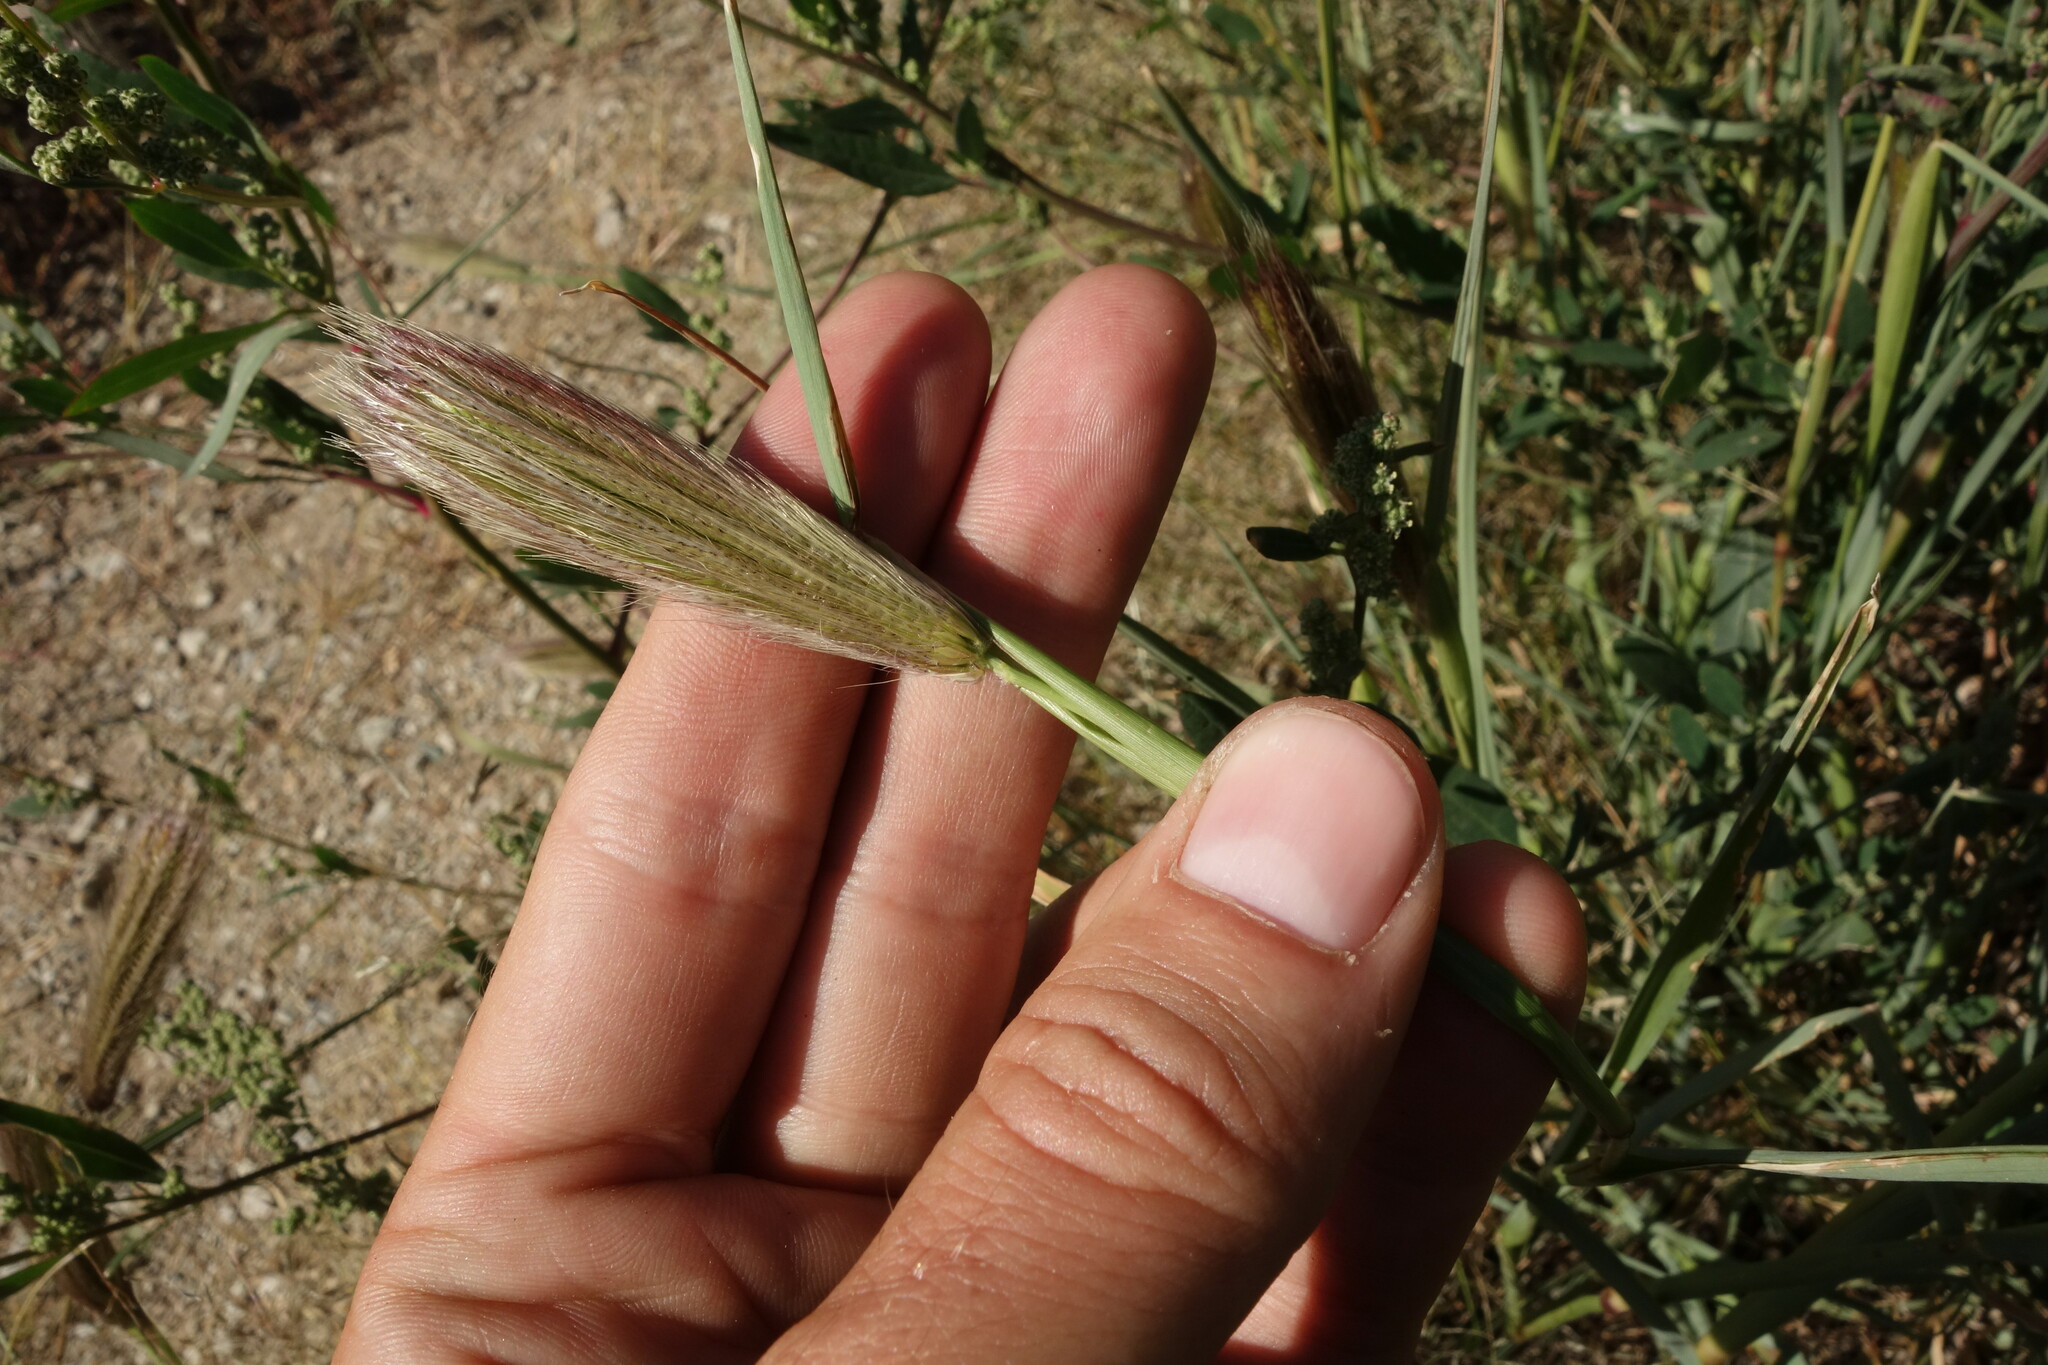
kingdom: Plantae
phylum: Tracheophyta
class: Liliopsida
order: Poales
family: Poaceae
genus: Chloris
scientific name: Chloris virgata
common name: Feathery rhodes-grass
